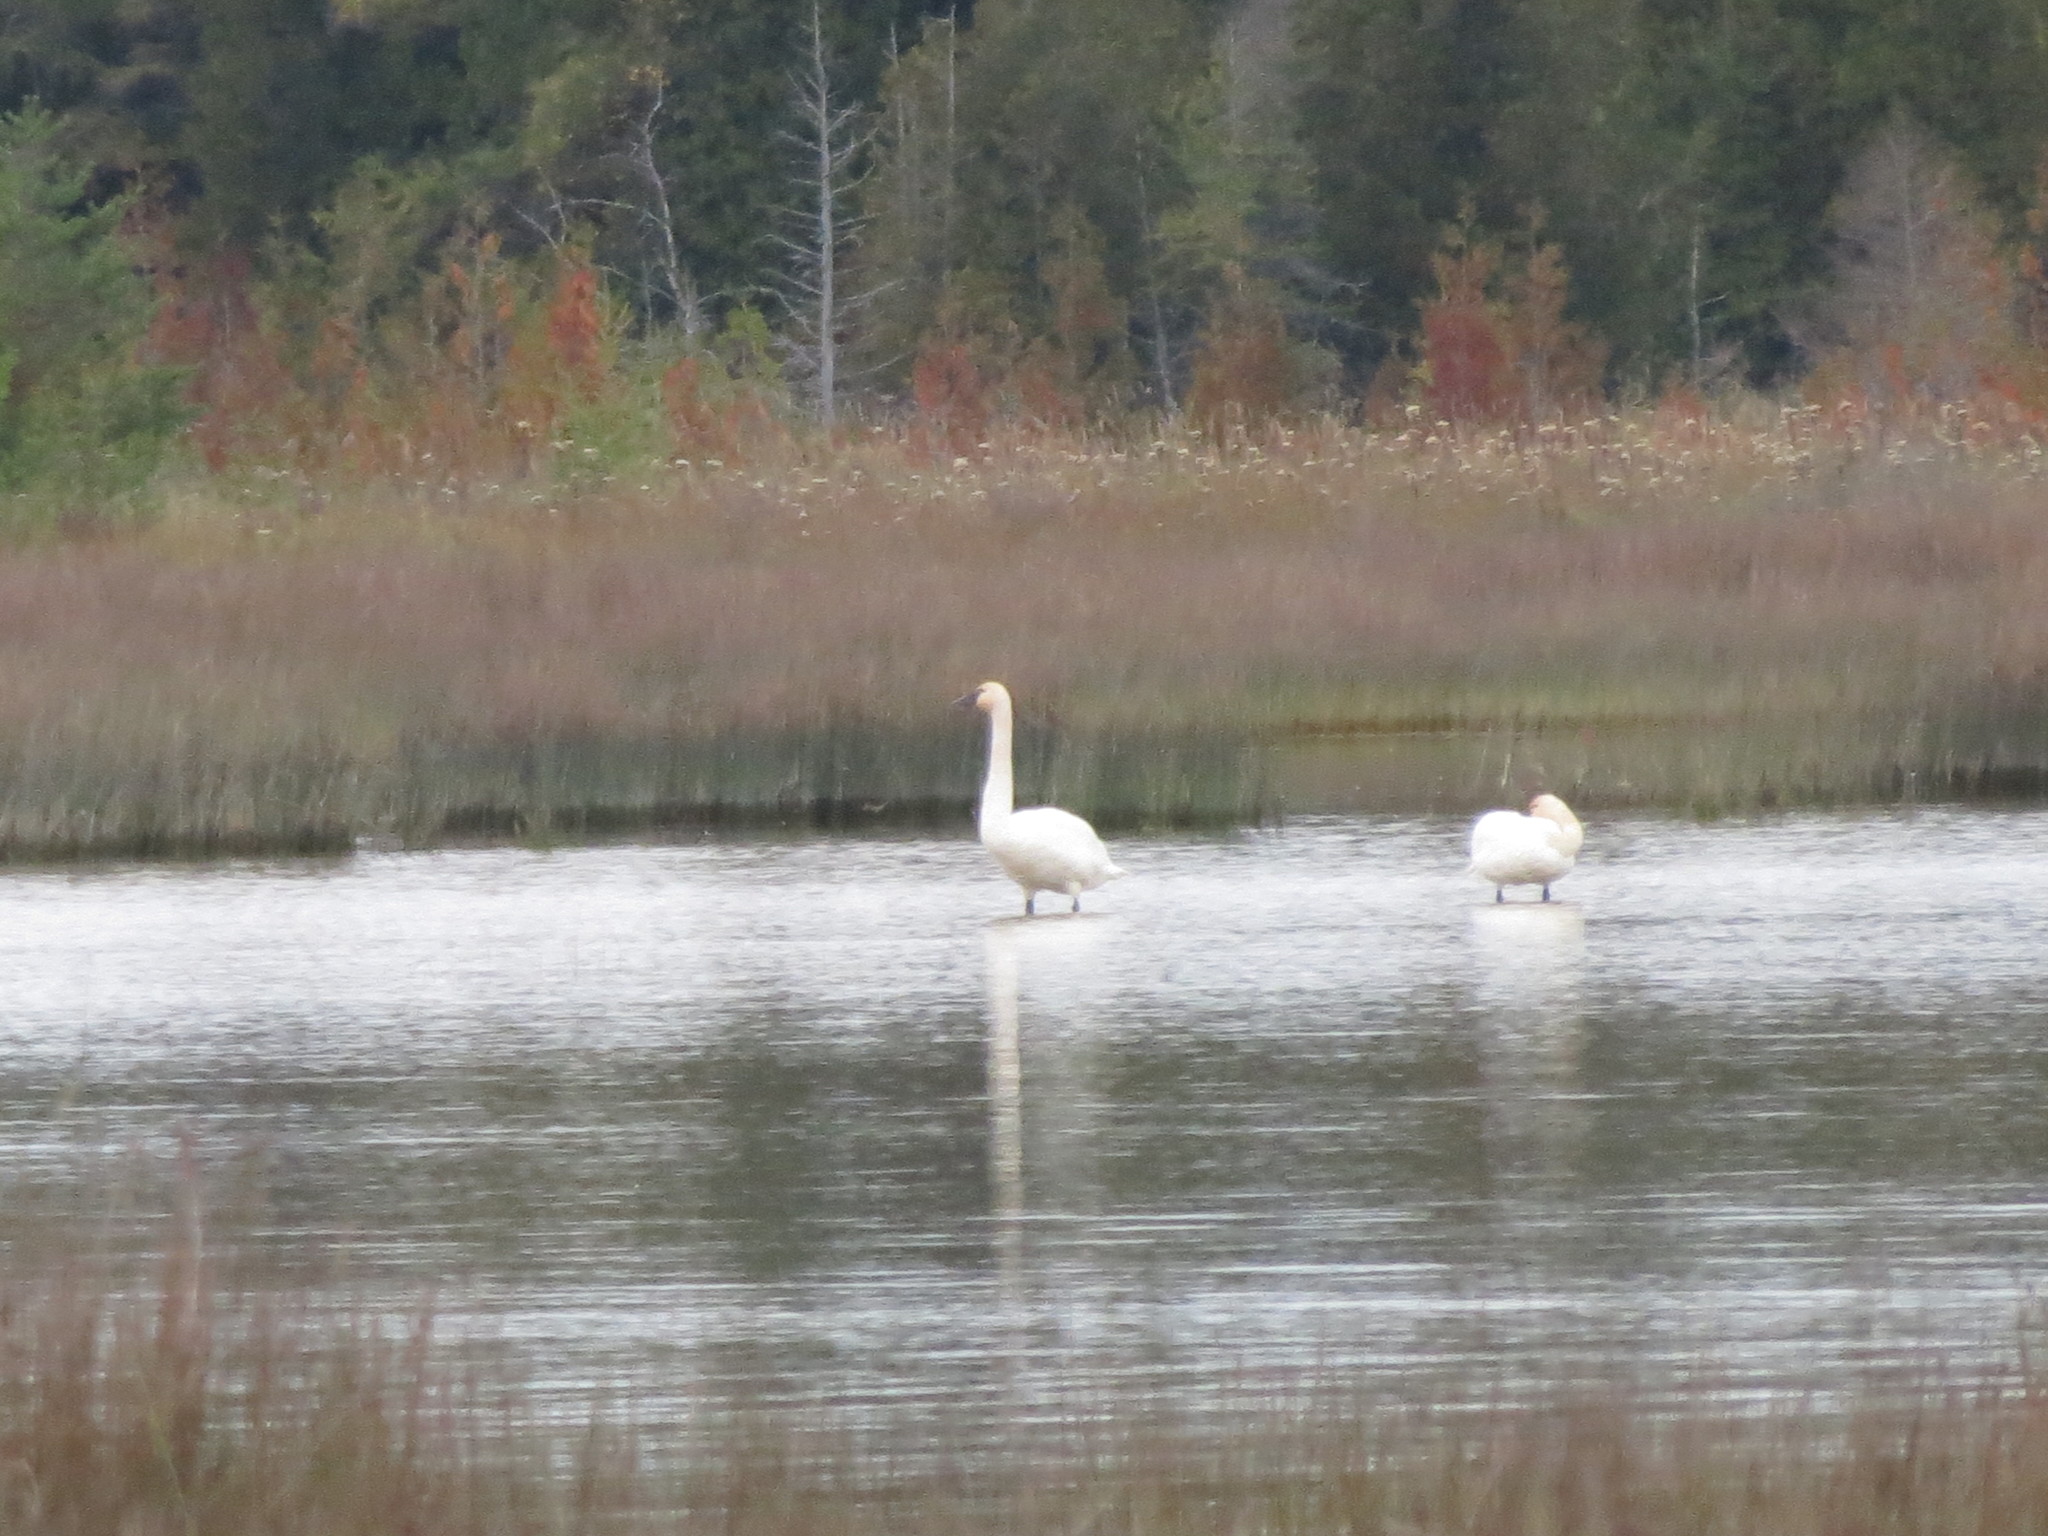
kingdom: Animalia
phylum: Chordata
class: Aves
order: Anseriformes
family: Anatidae
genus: Cygnus
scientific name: Cygnus buccinator
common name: Trumpeter swan
